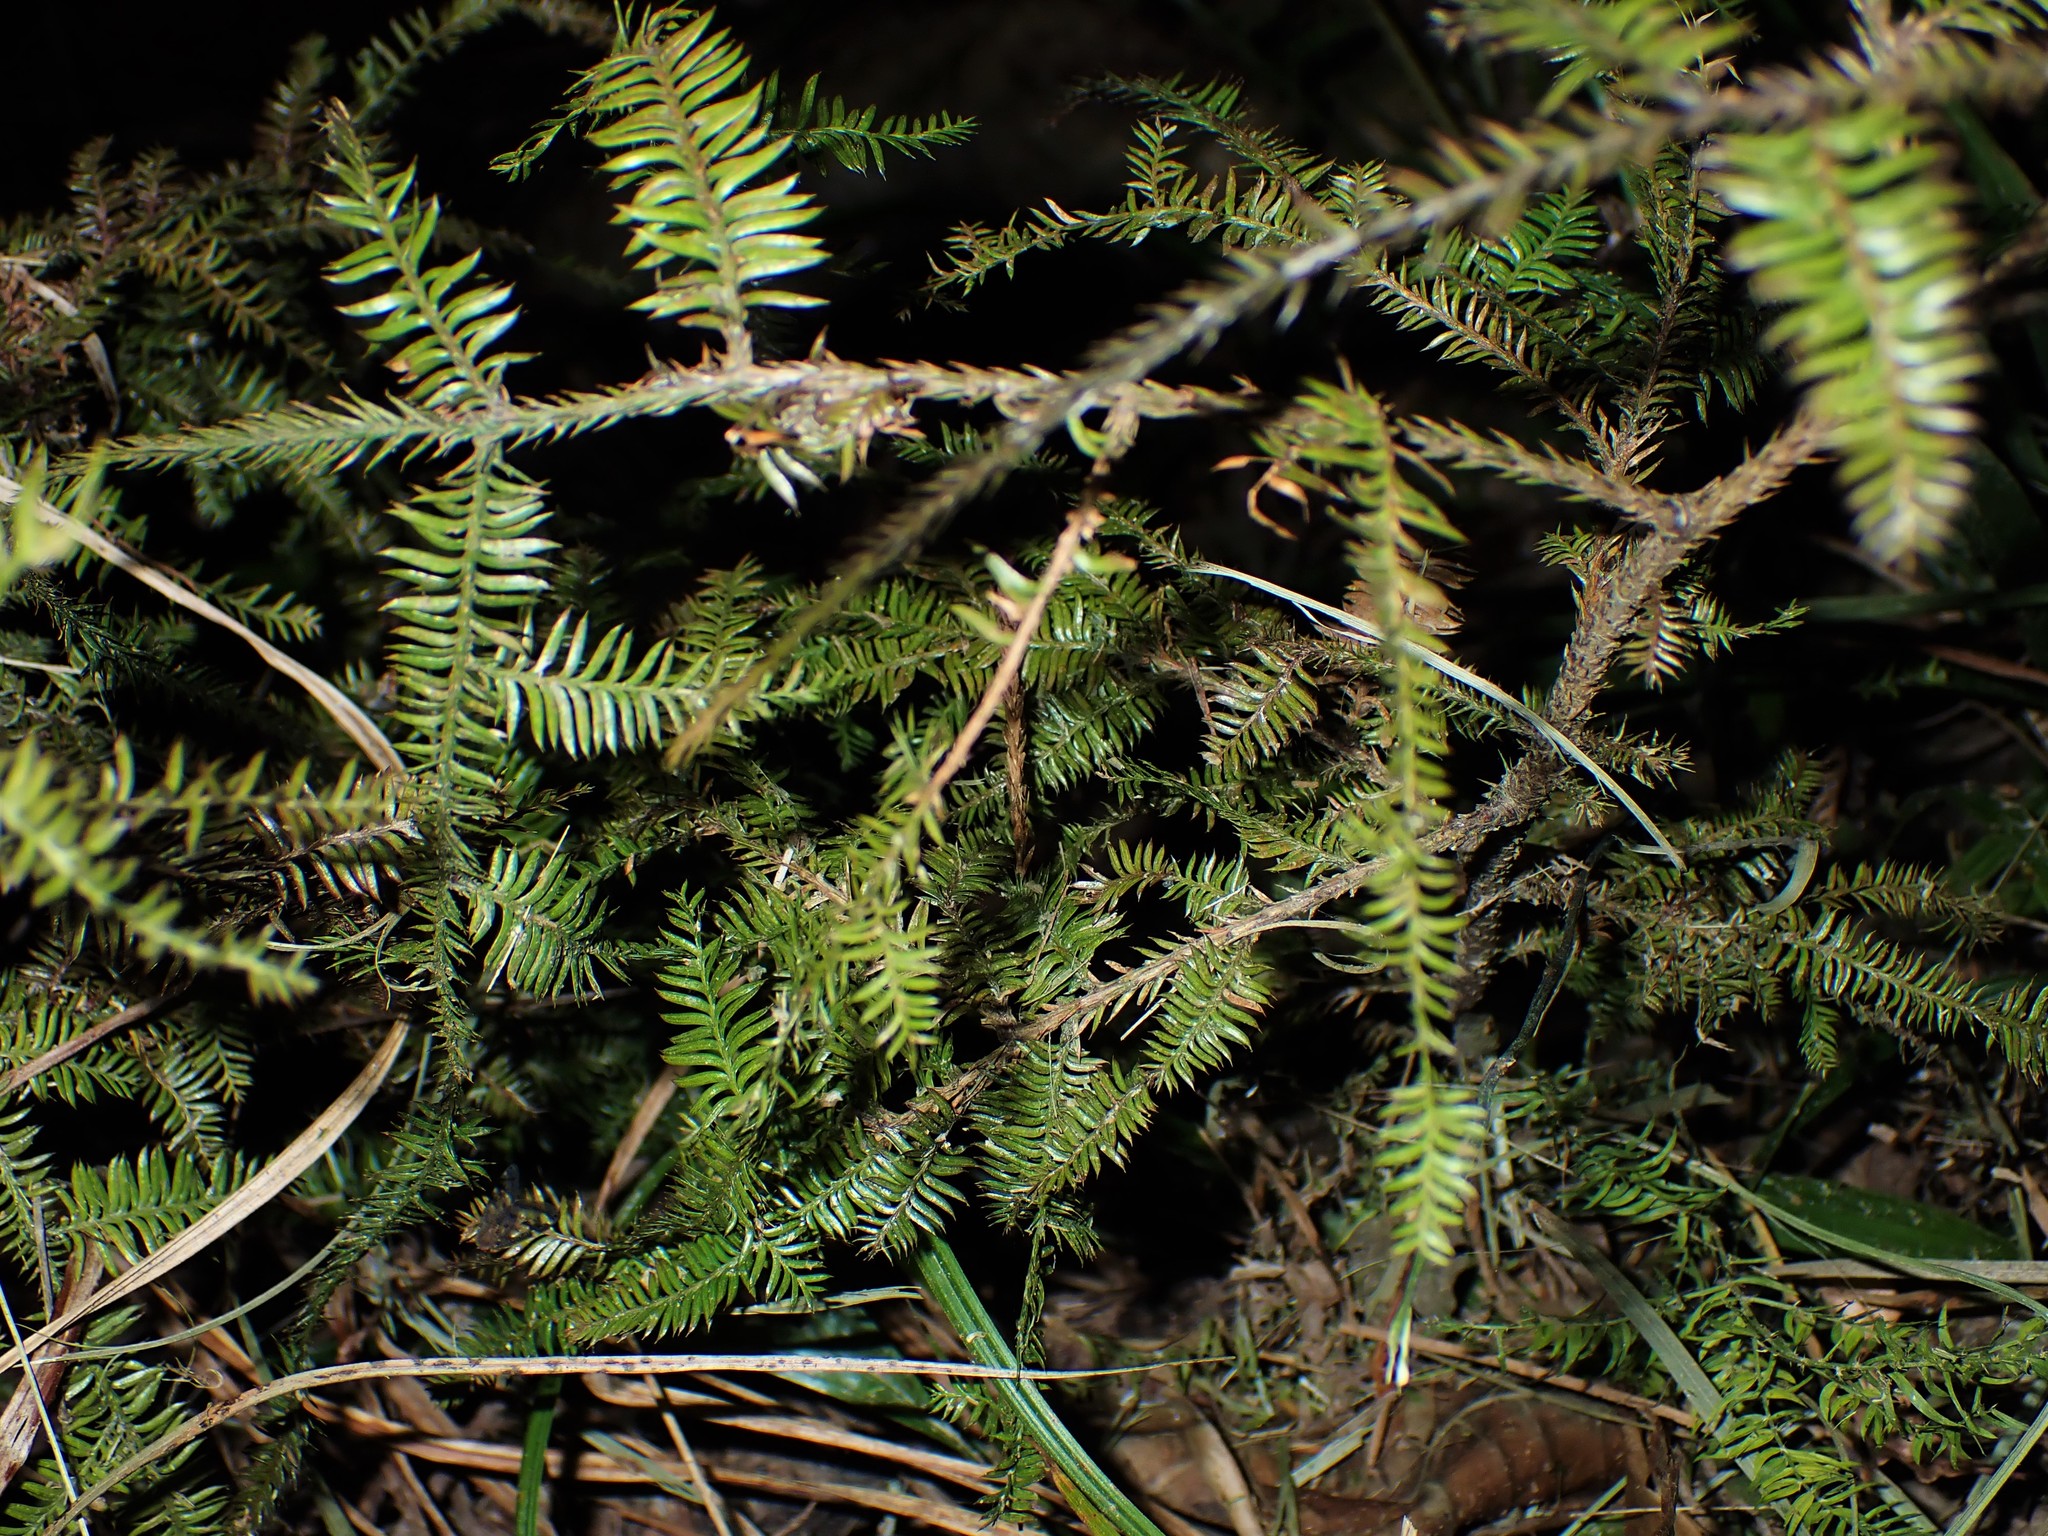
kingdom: Plantae
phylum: Tracheophyta
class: Pinopsida
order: Pinales
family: Podocarpaceae
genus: Dacrycarpus
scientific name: Dacrycarpus dacrydioides
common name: White pine
